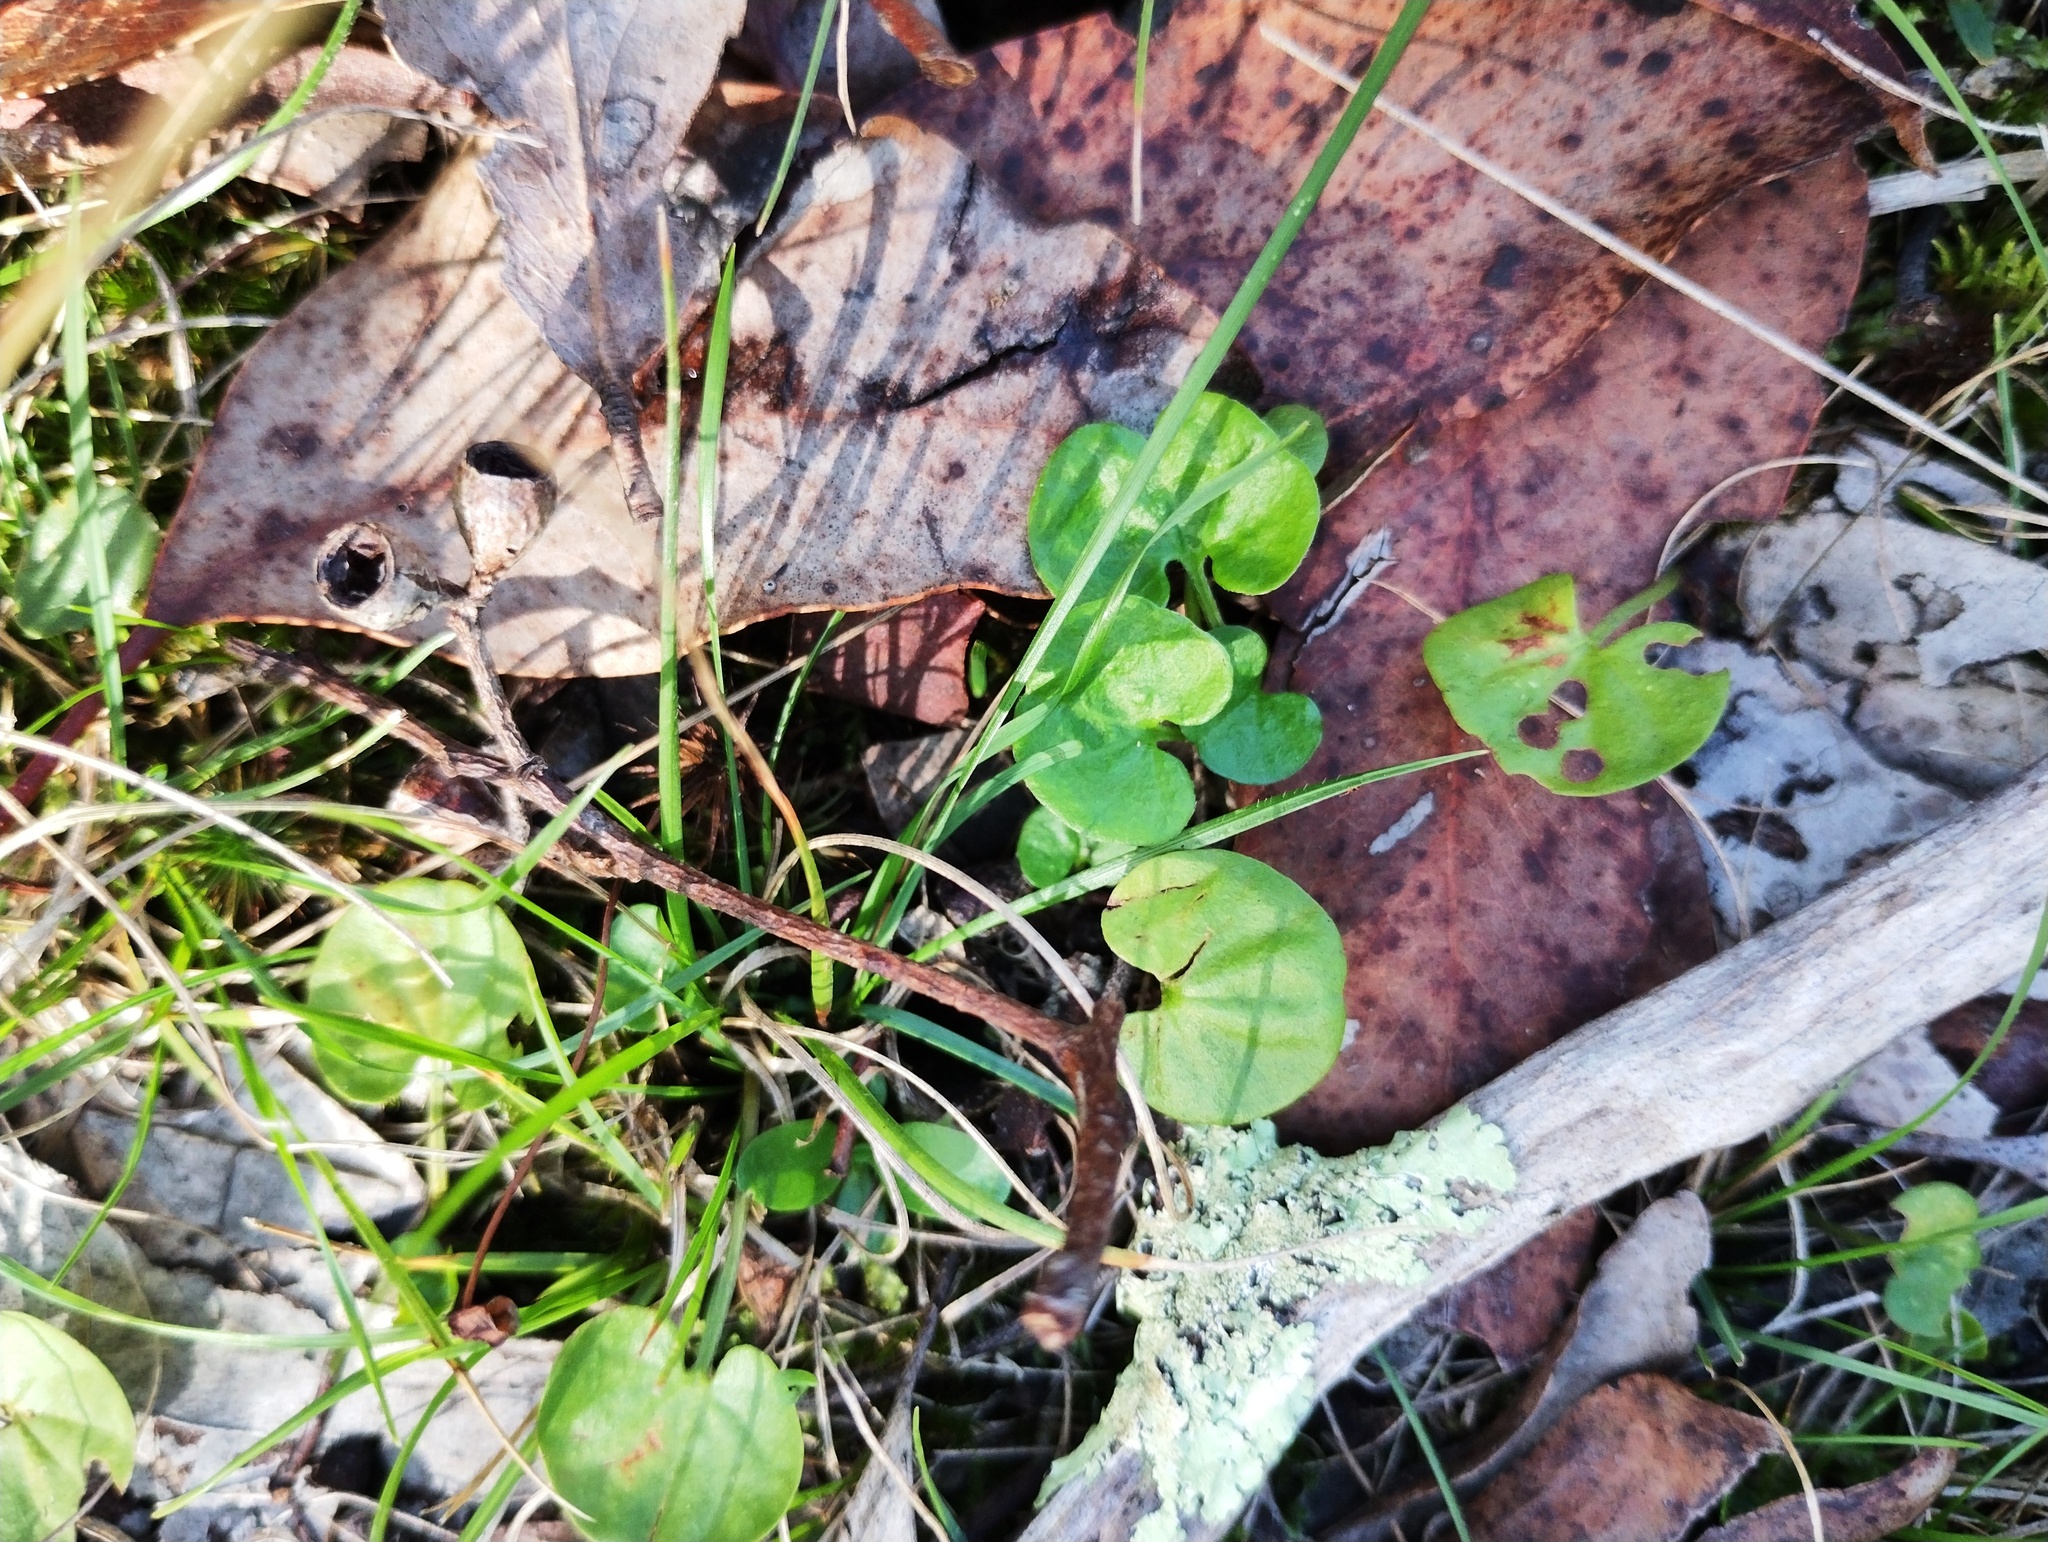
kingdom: Plantae
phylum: Tracheophyta
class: Magnoliopsida
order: Solanales
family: Convolvulaceae
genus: Dichondra
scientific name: Dichondra repens
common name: Kidneyweed
